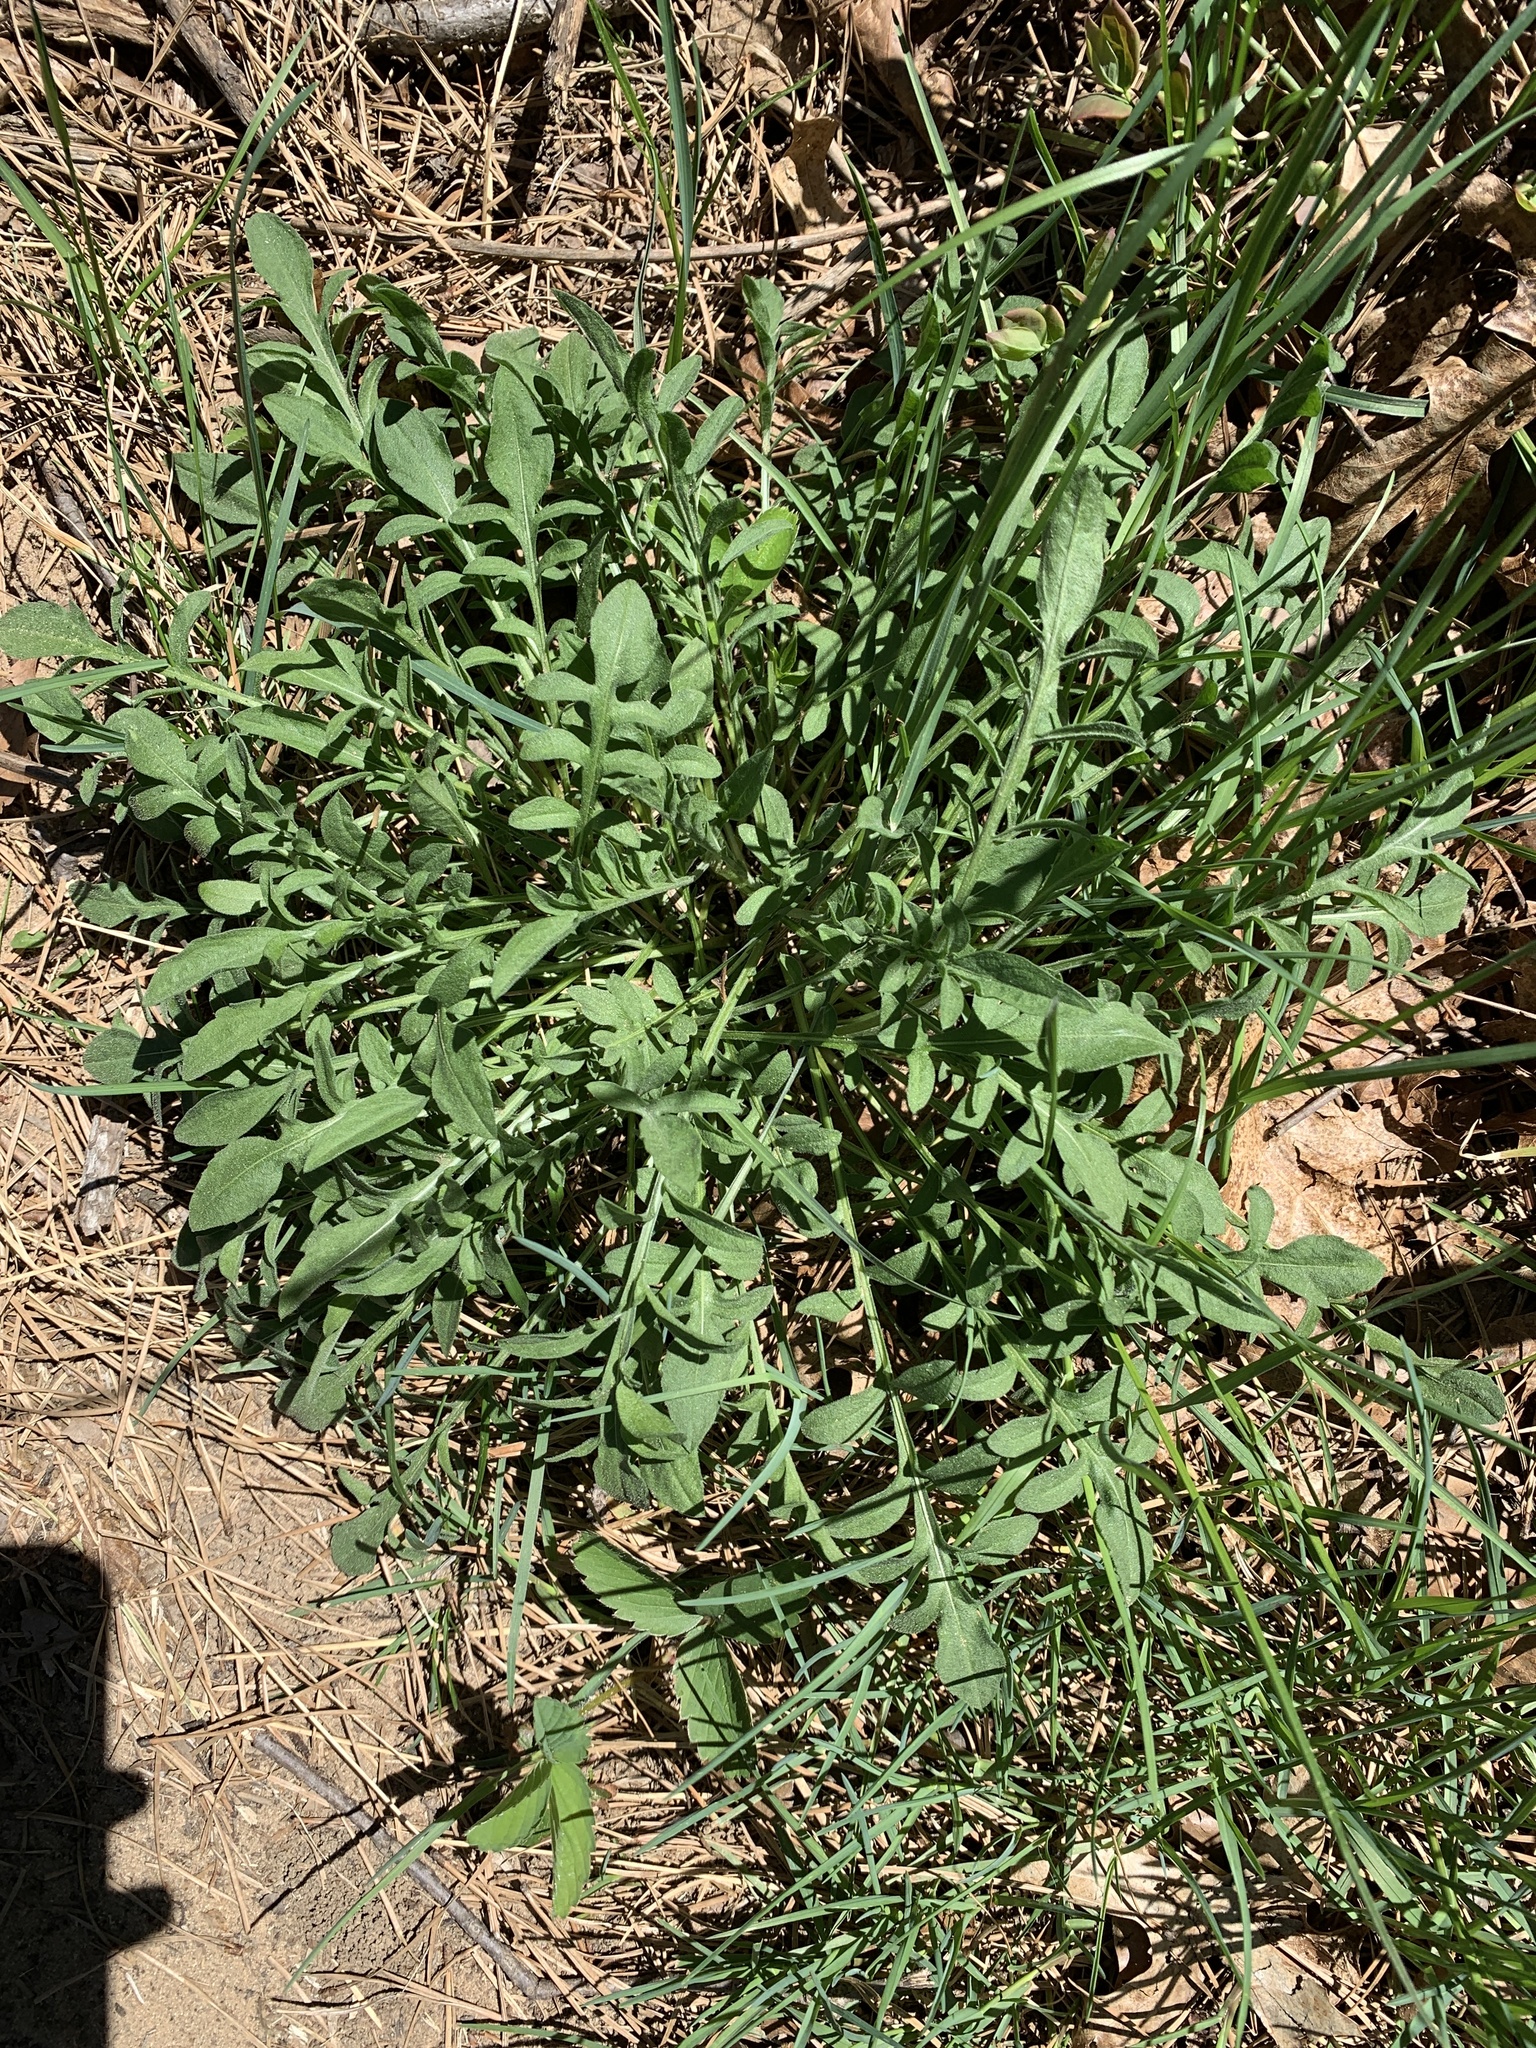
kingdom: Plantae
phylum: Tracheophyta
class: Magnoliopsida
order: Asterales
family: Asteraceae
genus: Centaurea
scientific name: Centaurea stoebe
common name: Spotted knapweed
